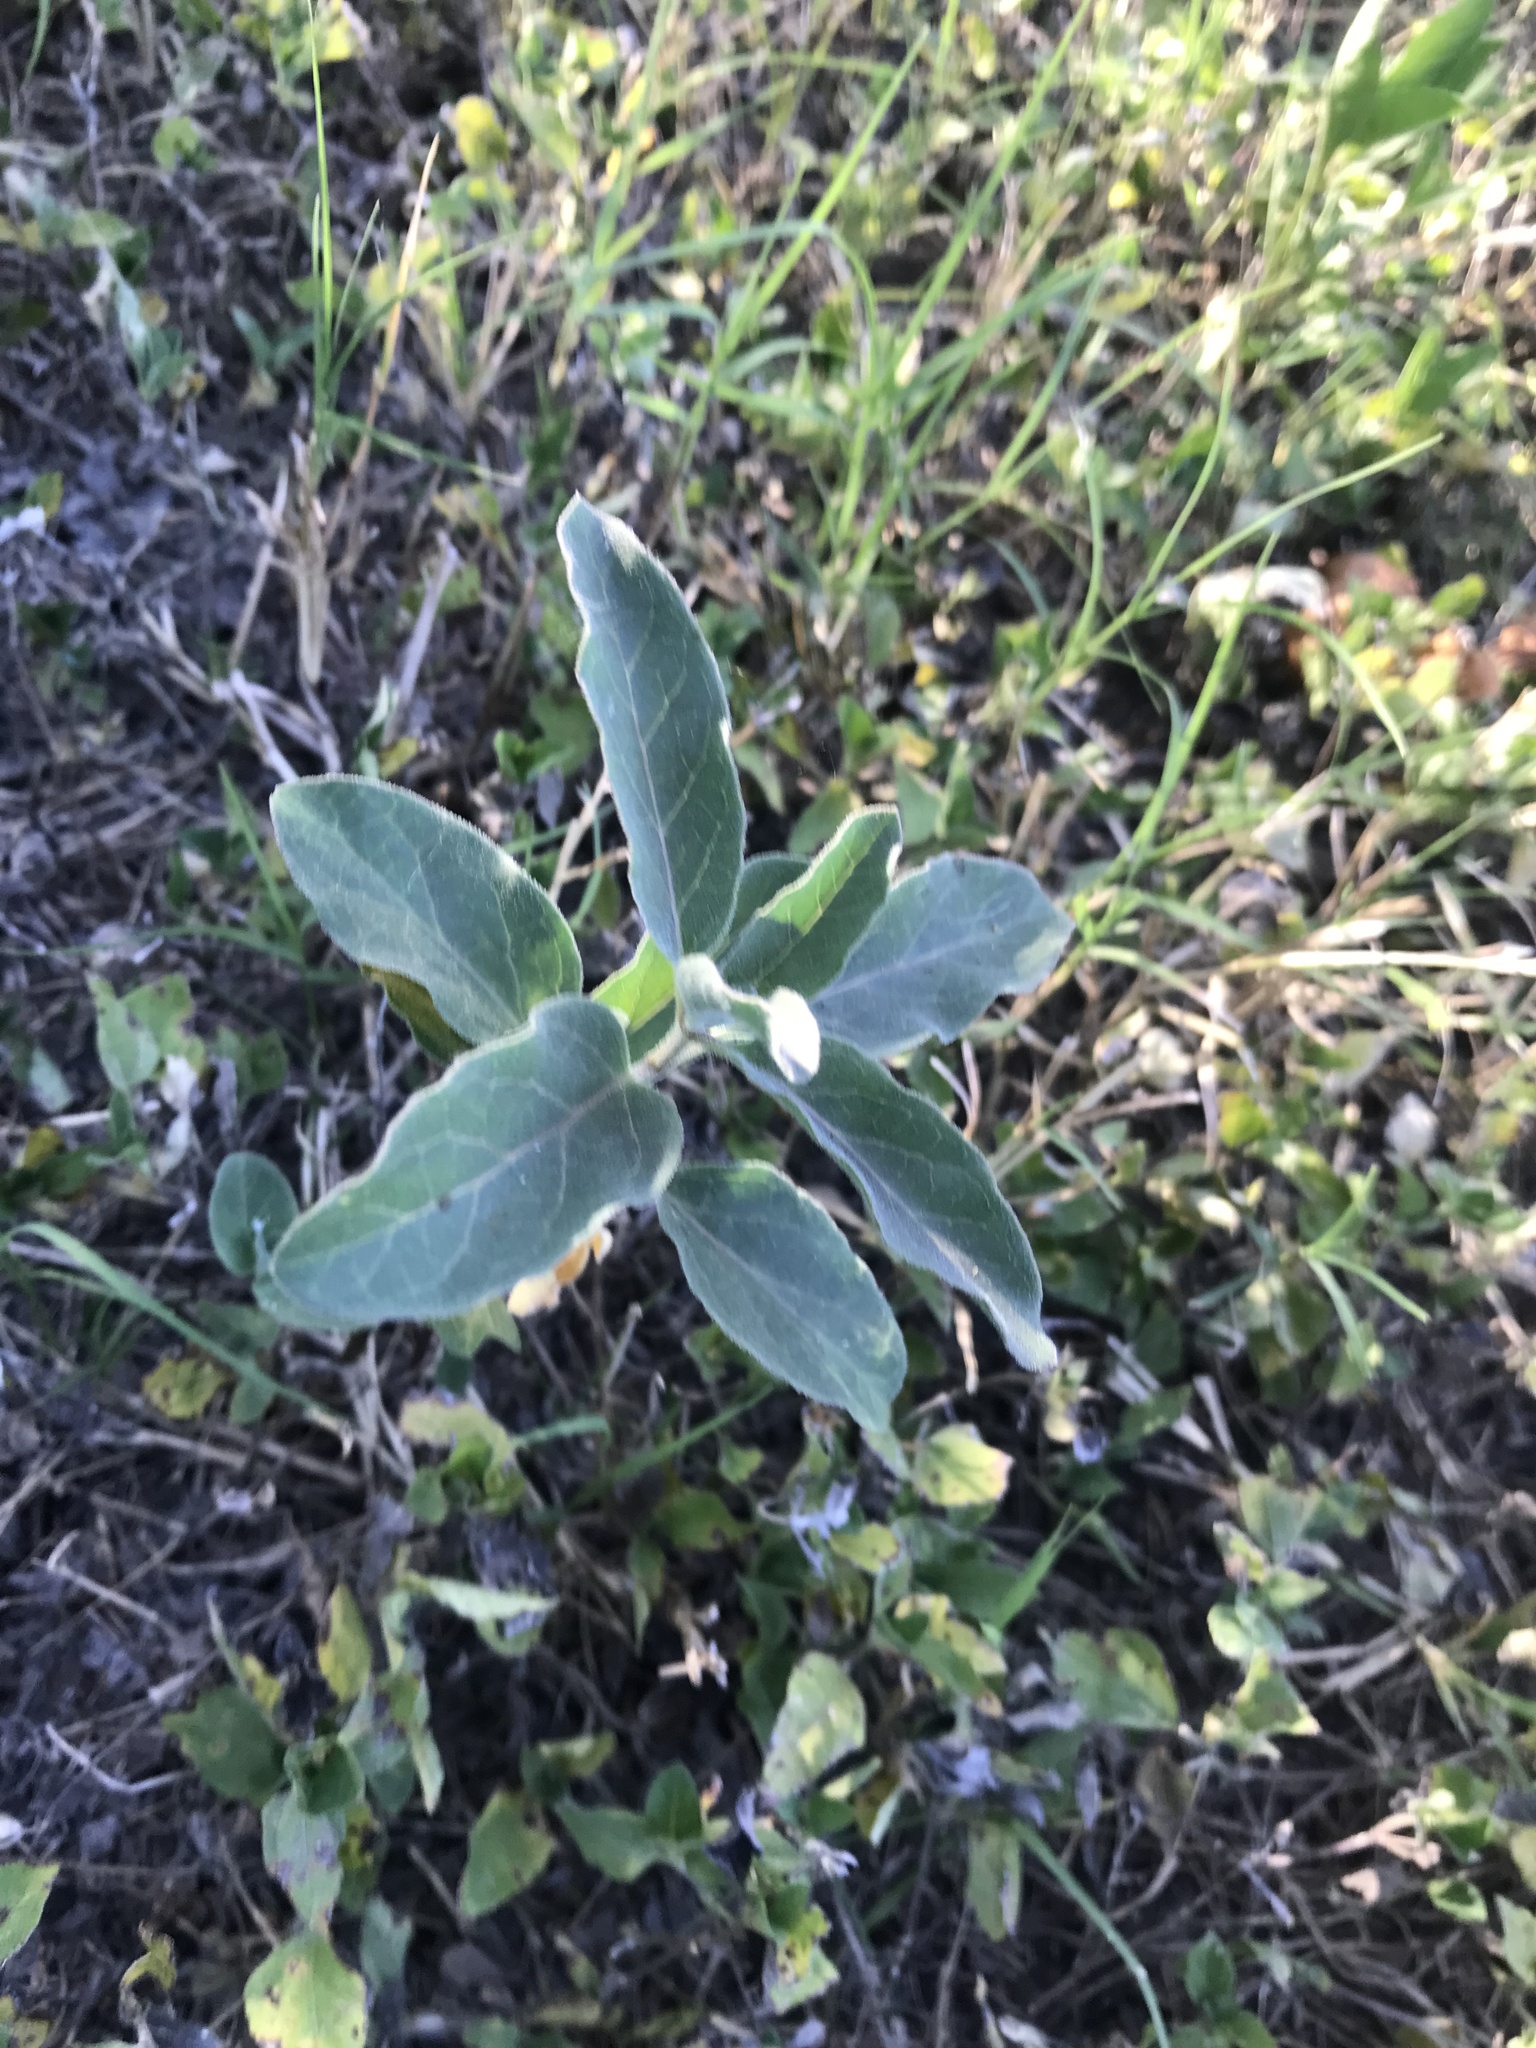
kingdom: Plantae
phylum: Tracheophyta
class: Magnoliopsida
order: Gentianales
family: Apocynaceae
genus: Asclepias
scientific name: Asclepias oenotheroides
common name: Zizotes milkweed
